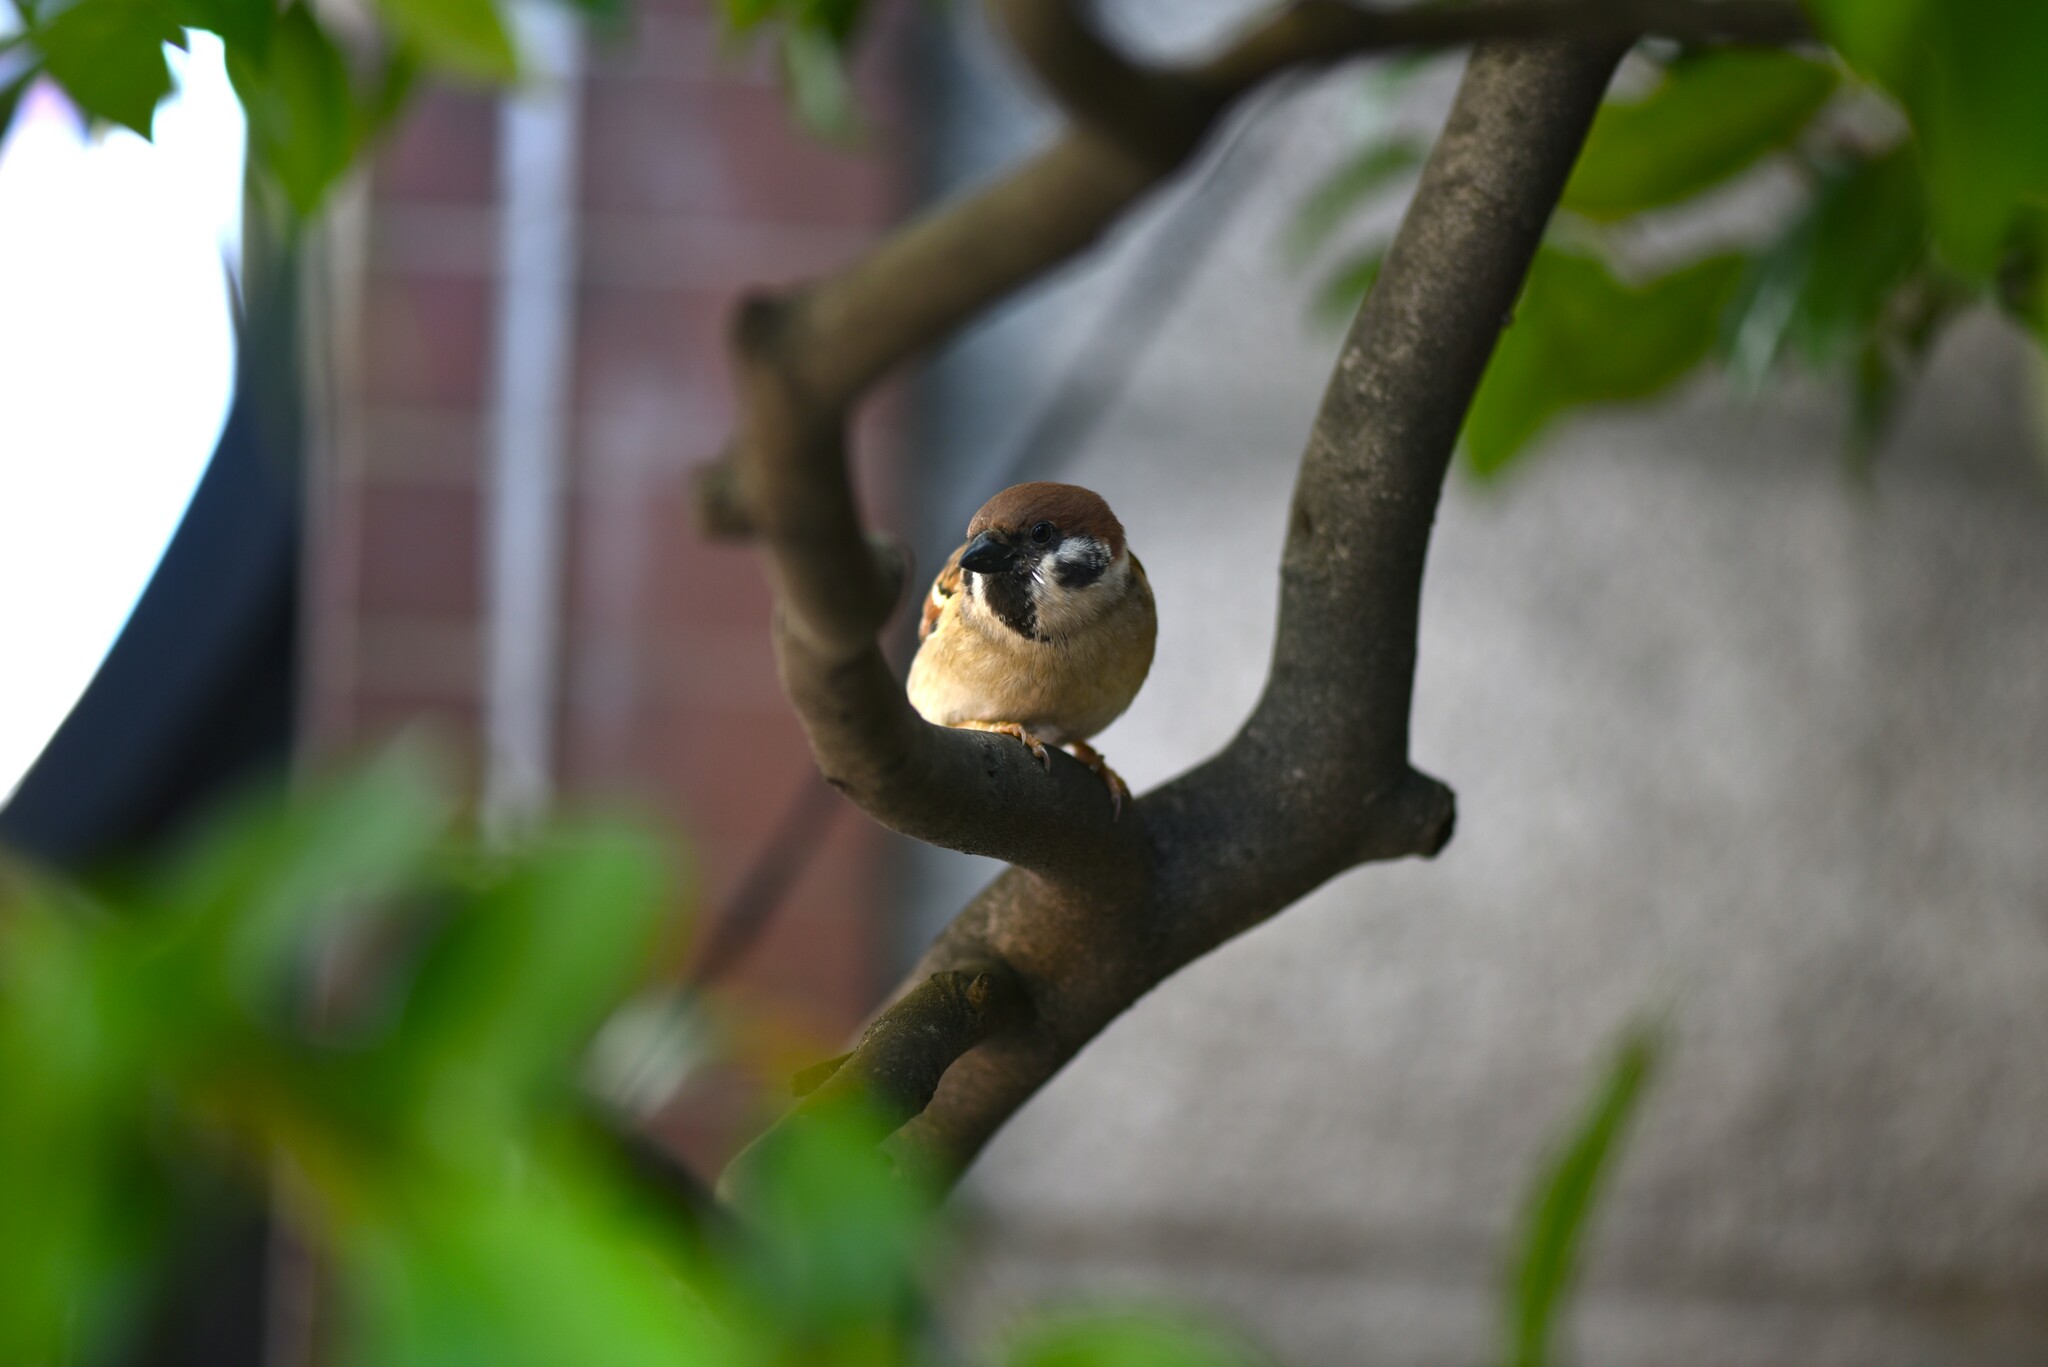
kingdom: Animalia
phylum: Chordata
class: Aves
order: Passeriformes
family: Passeridae
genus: Passer
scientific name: Passer montanus
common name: Eurasian tree sparrow
